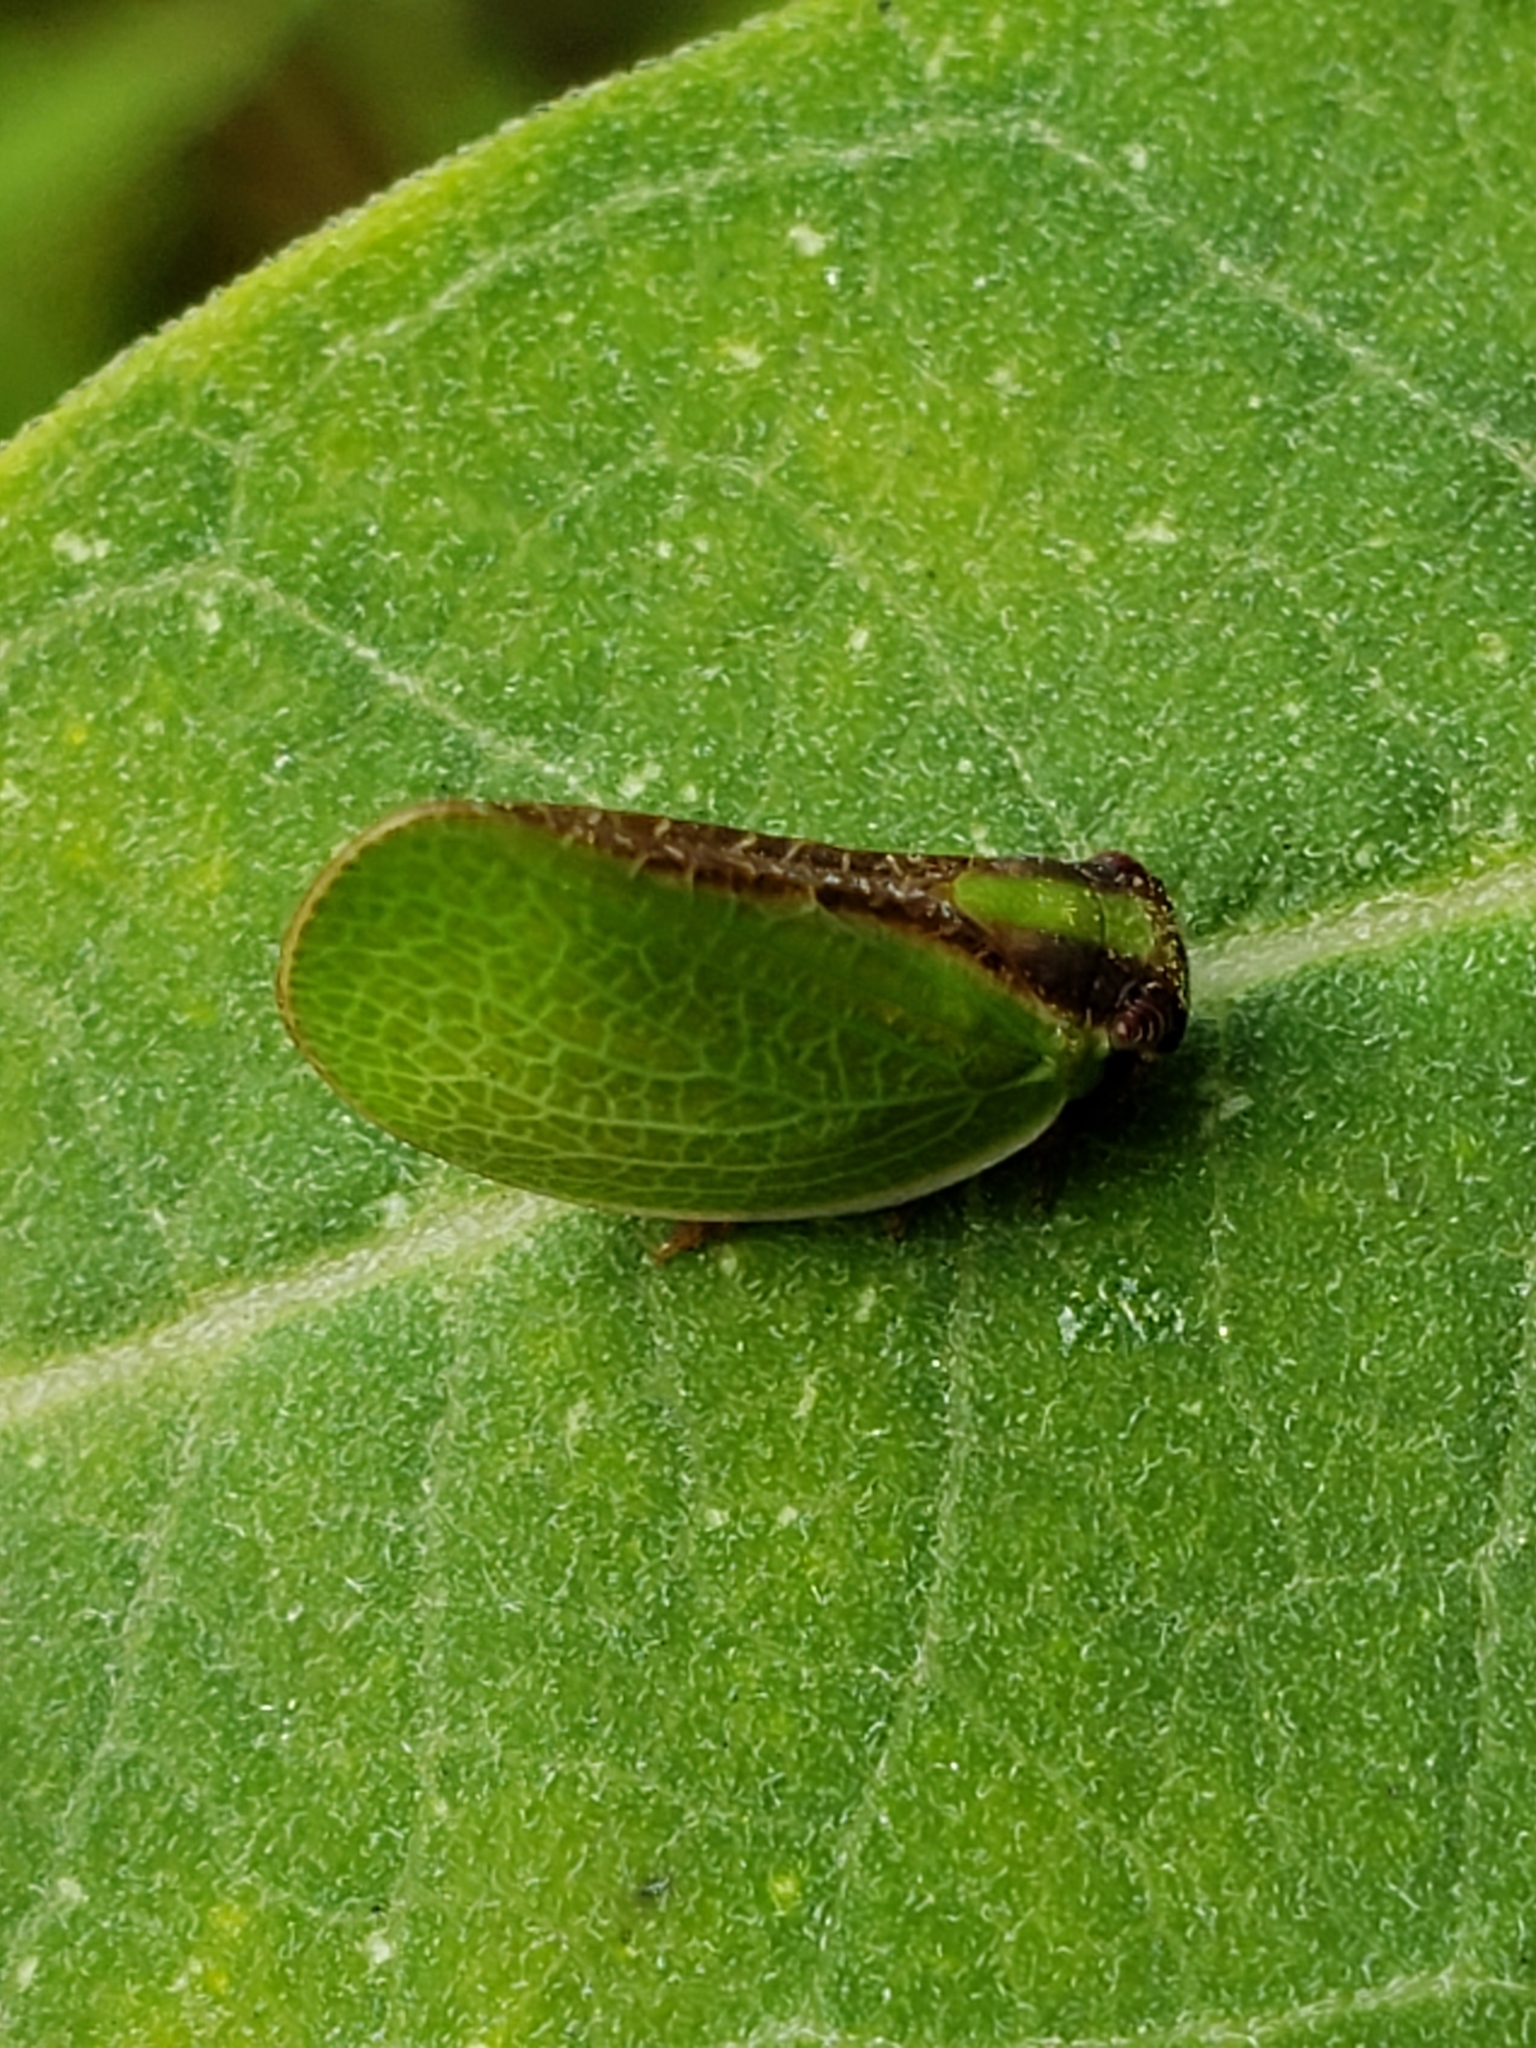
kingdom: Animalia
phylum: Arthropoda
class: Insecta
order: Hemiptera
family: Acanaloniidae
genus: Acanalonia
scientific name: Acanalonia bivittata
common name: Two-striped planthopper
